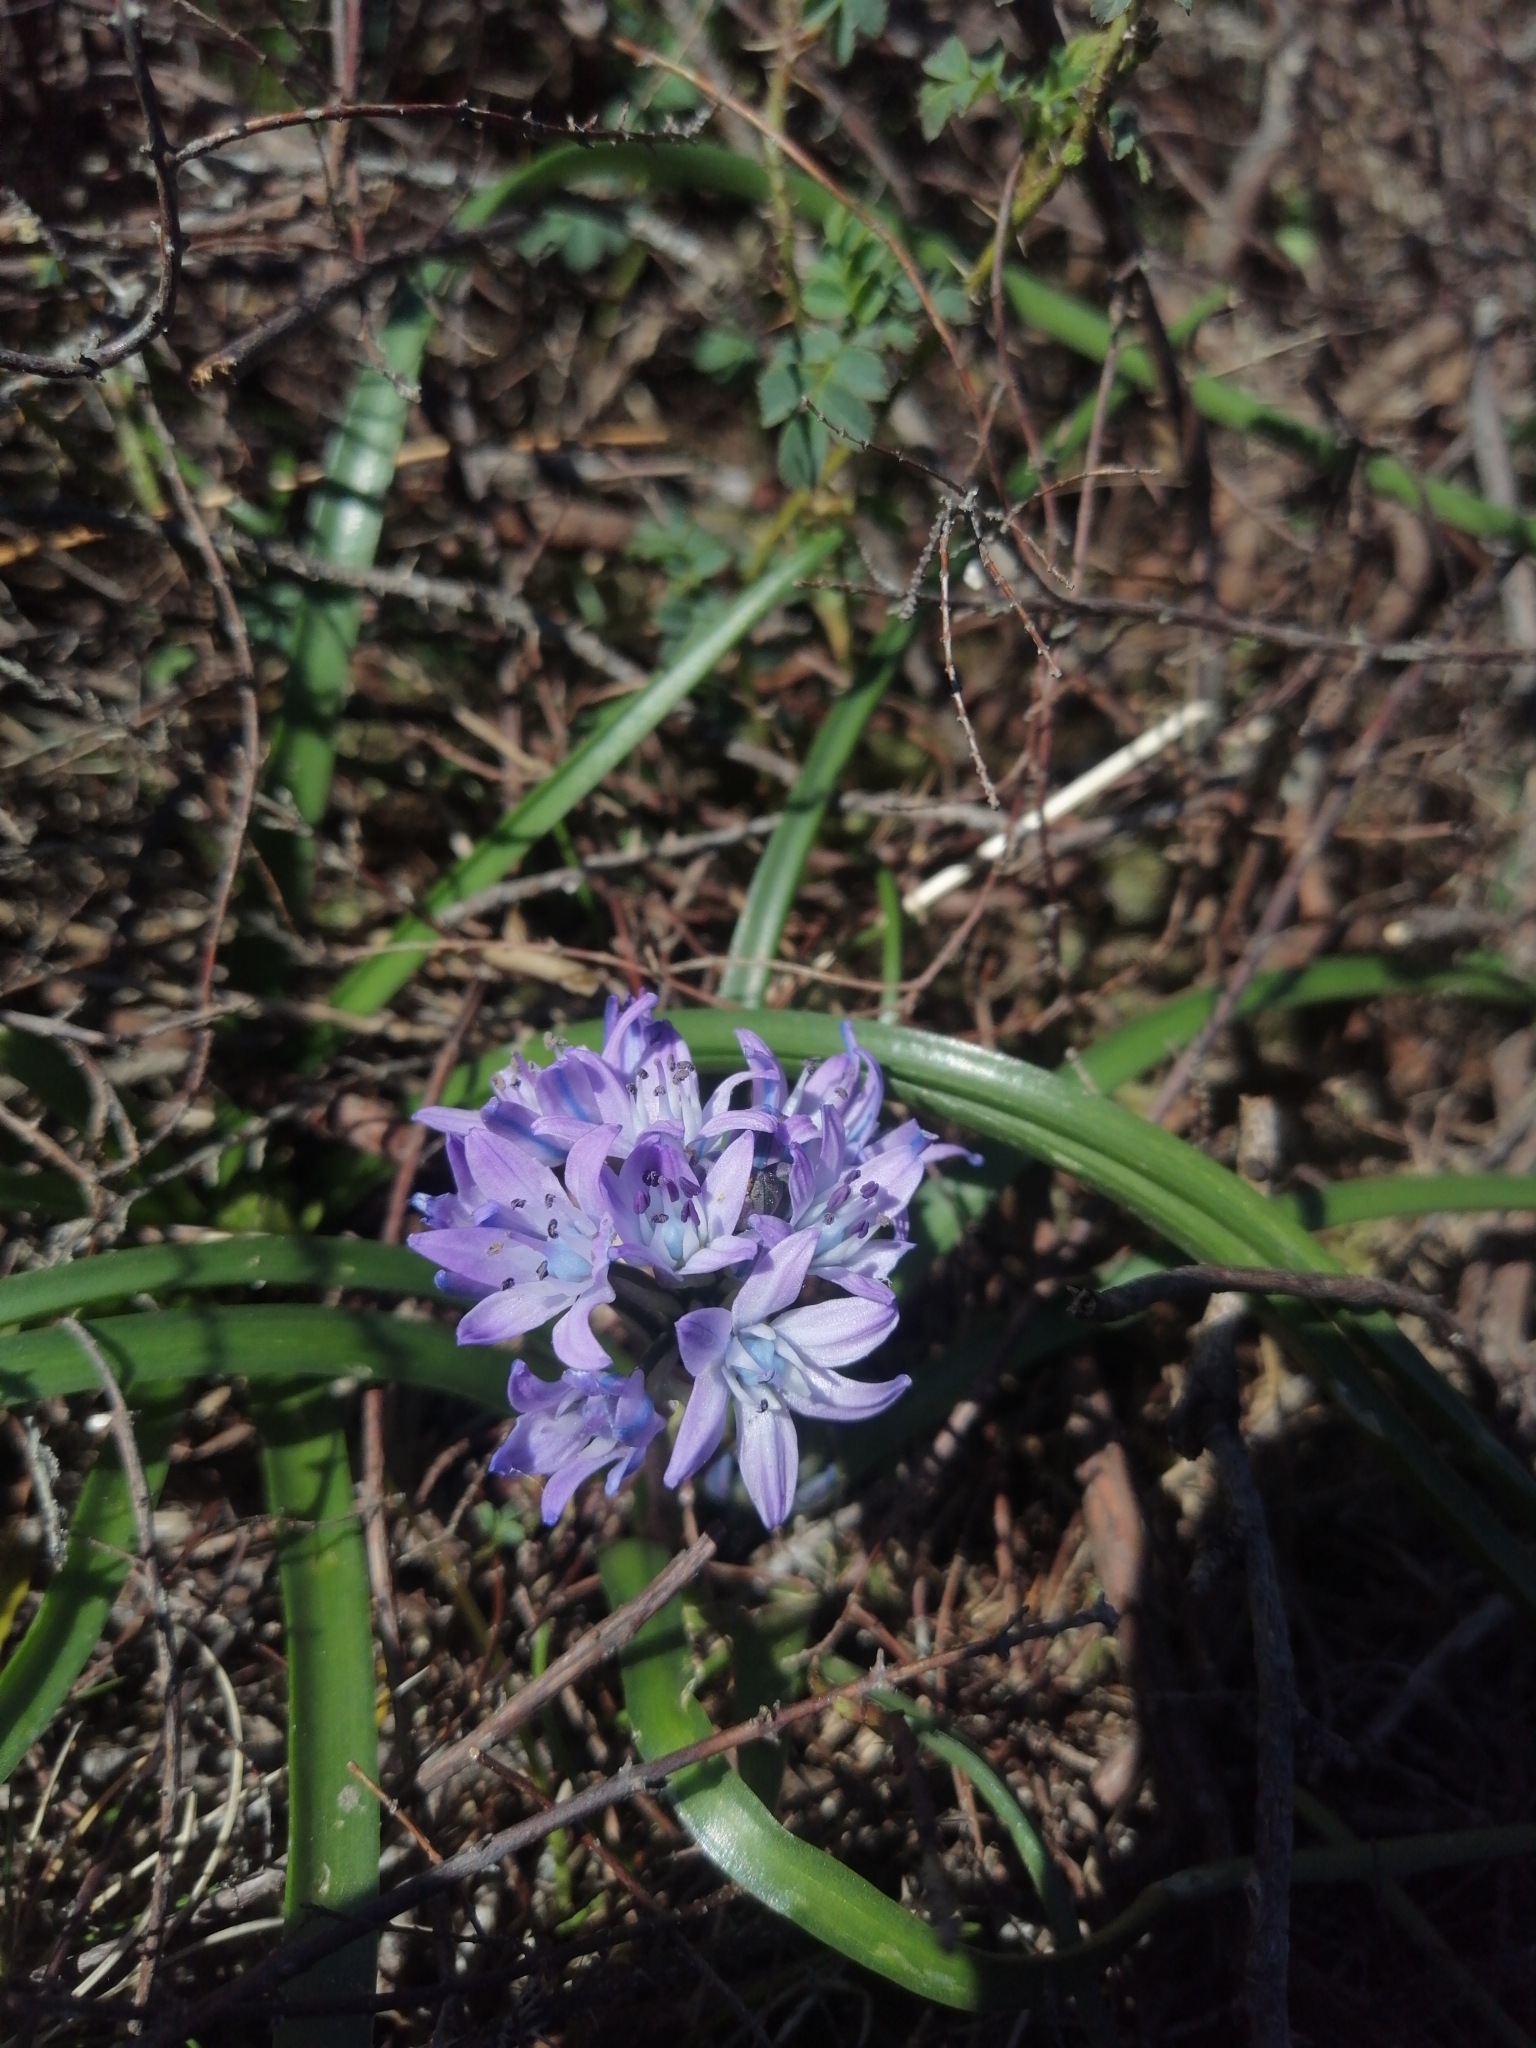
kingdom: Plantae
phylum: Tracheophyta
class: Liliopsida
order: Asparagales
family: Asparagaceae
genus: Scilla
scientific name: Scilla verna
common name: Spring squill
